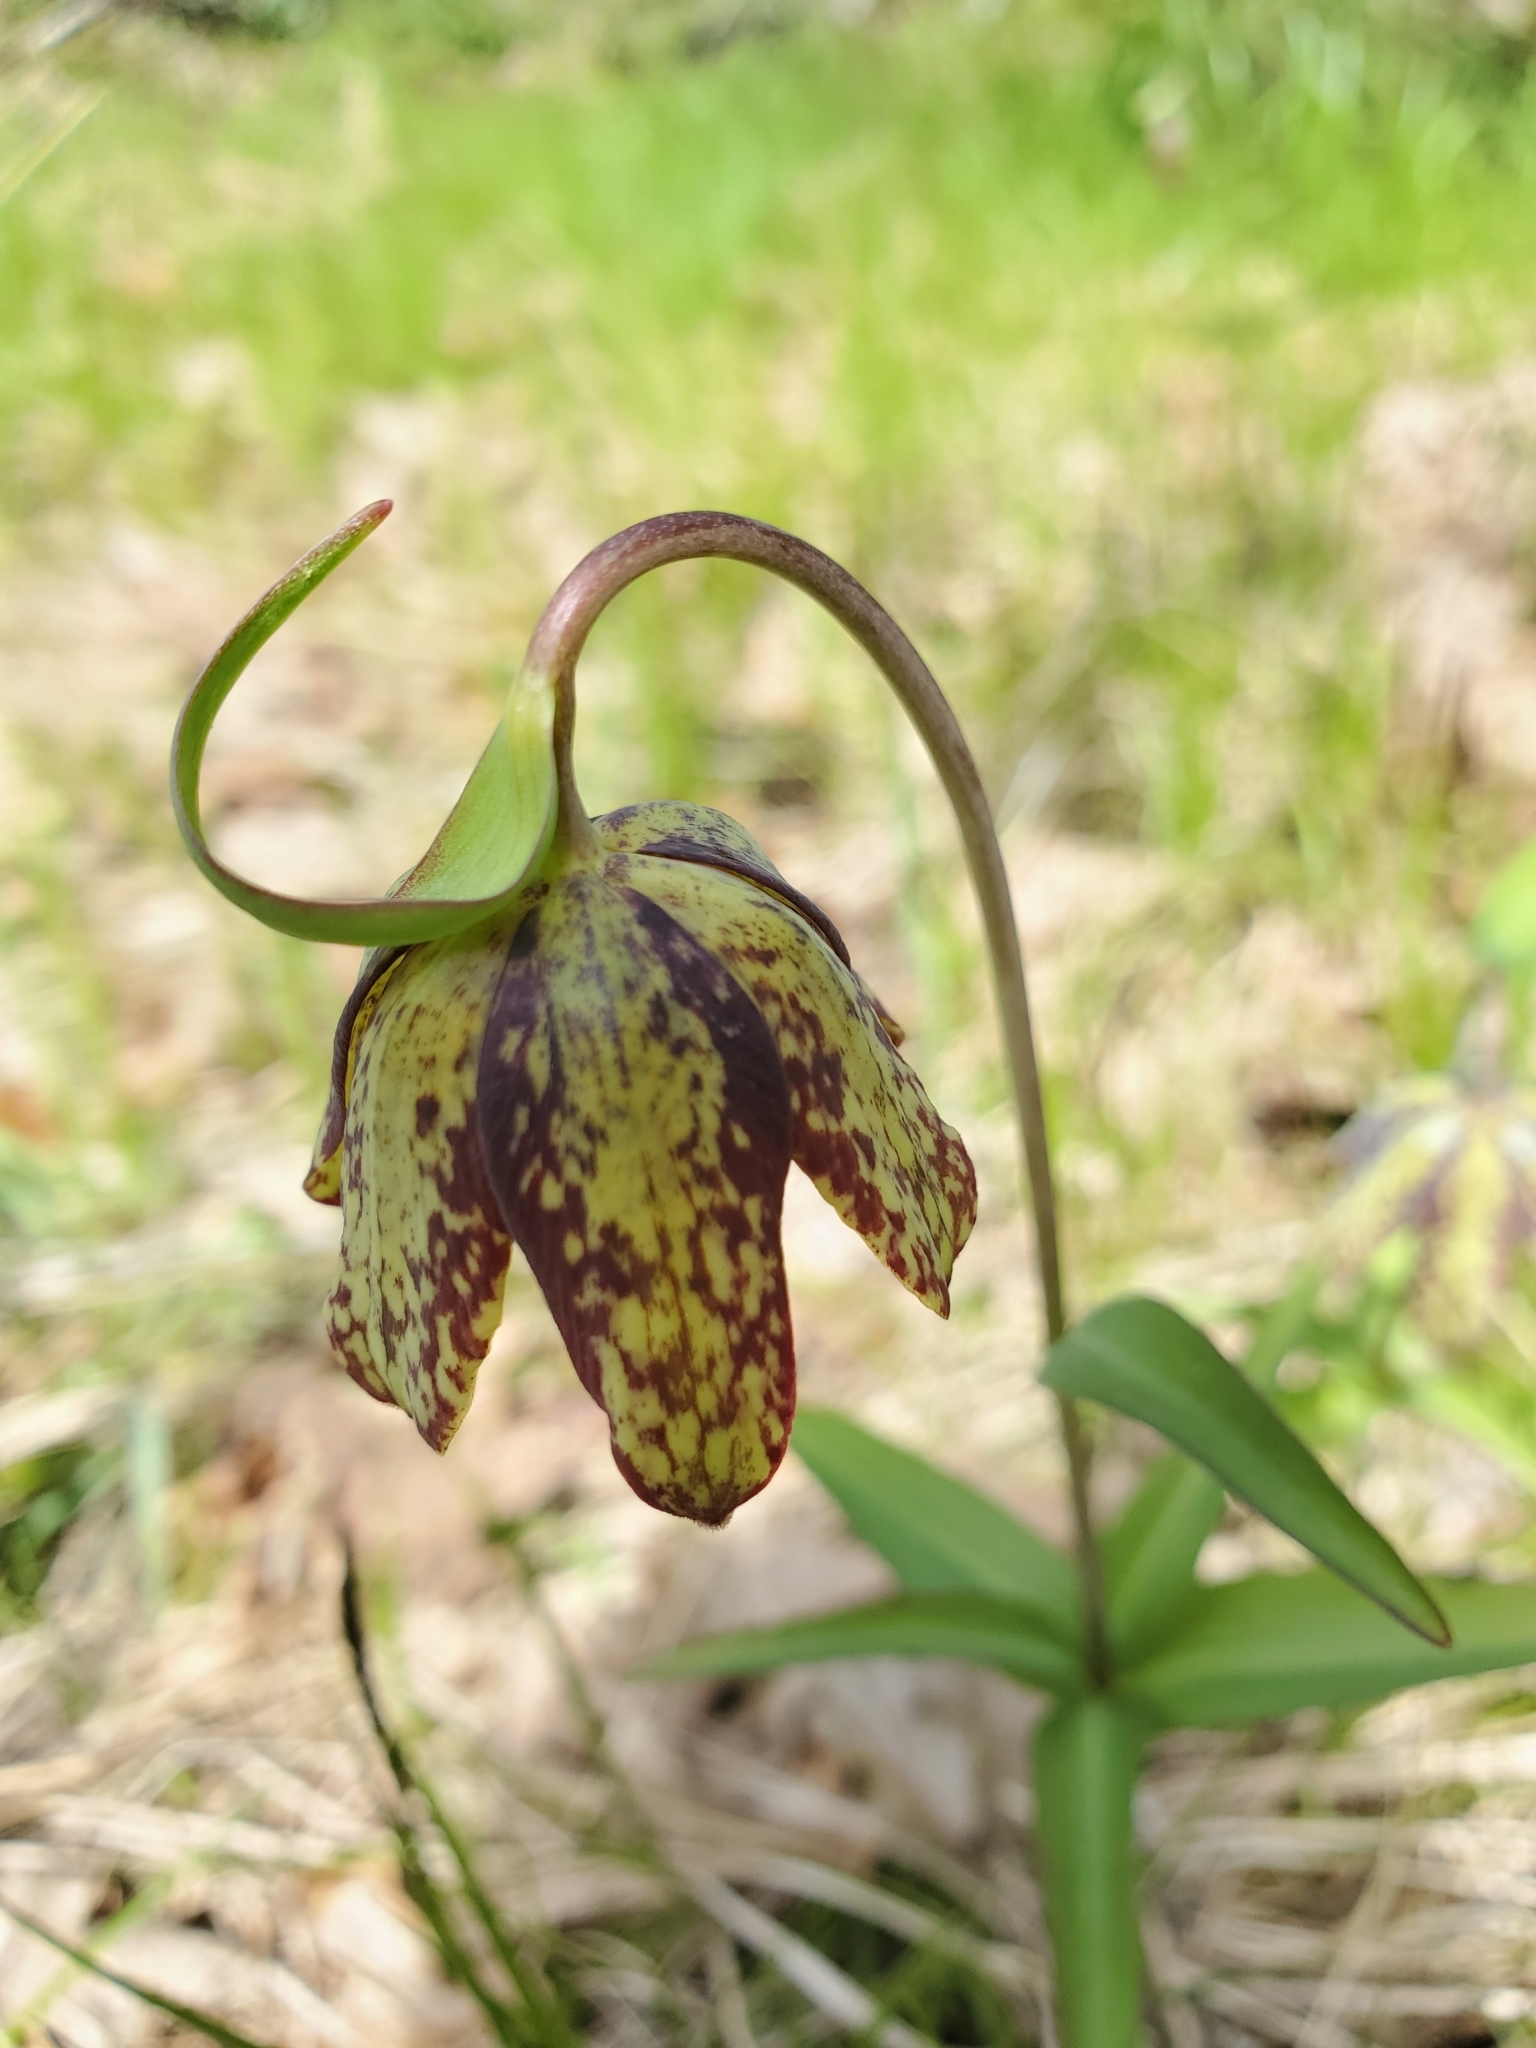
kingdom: Plantae
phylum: Tracheophyta
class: Liliopsida
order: Liliales
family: Liliaceae
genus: Fritillaria
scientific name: Fritillaria affinis
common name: Ojai fritillary
